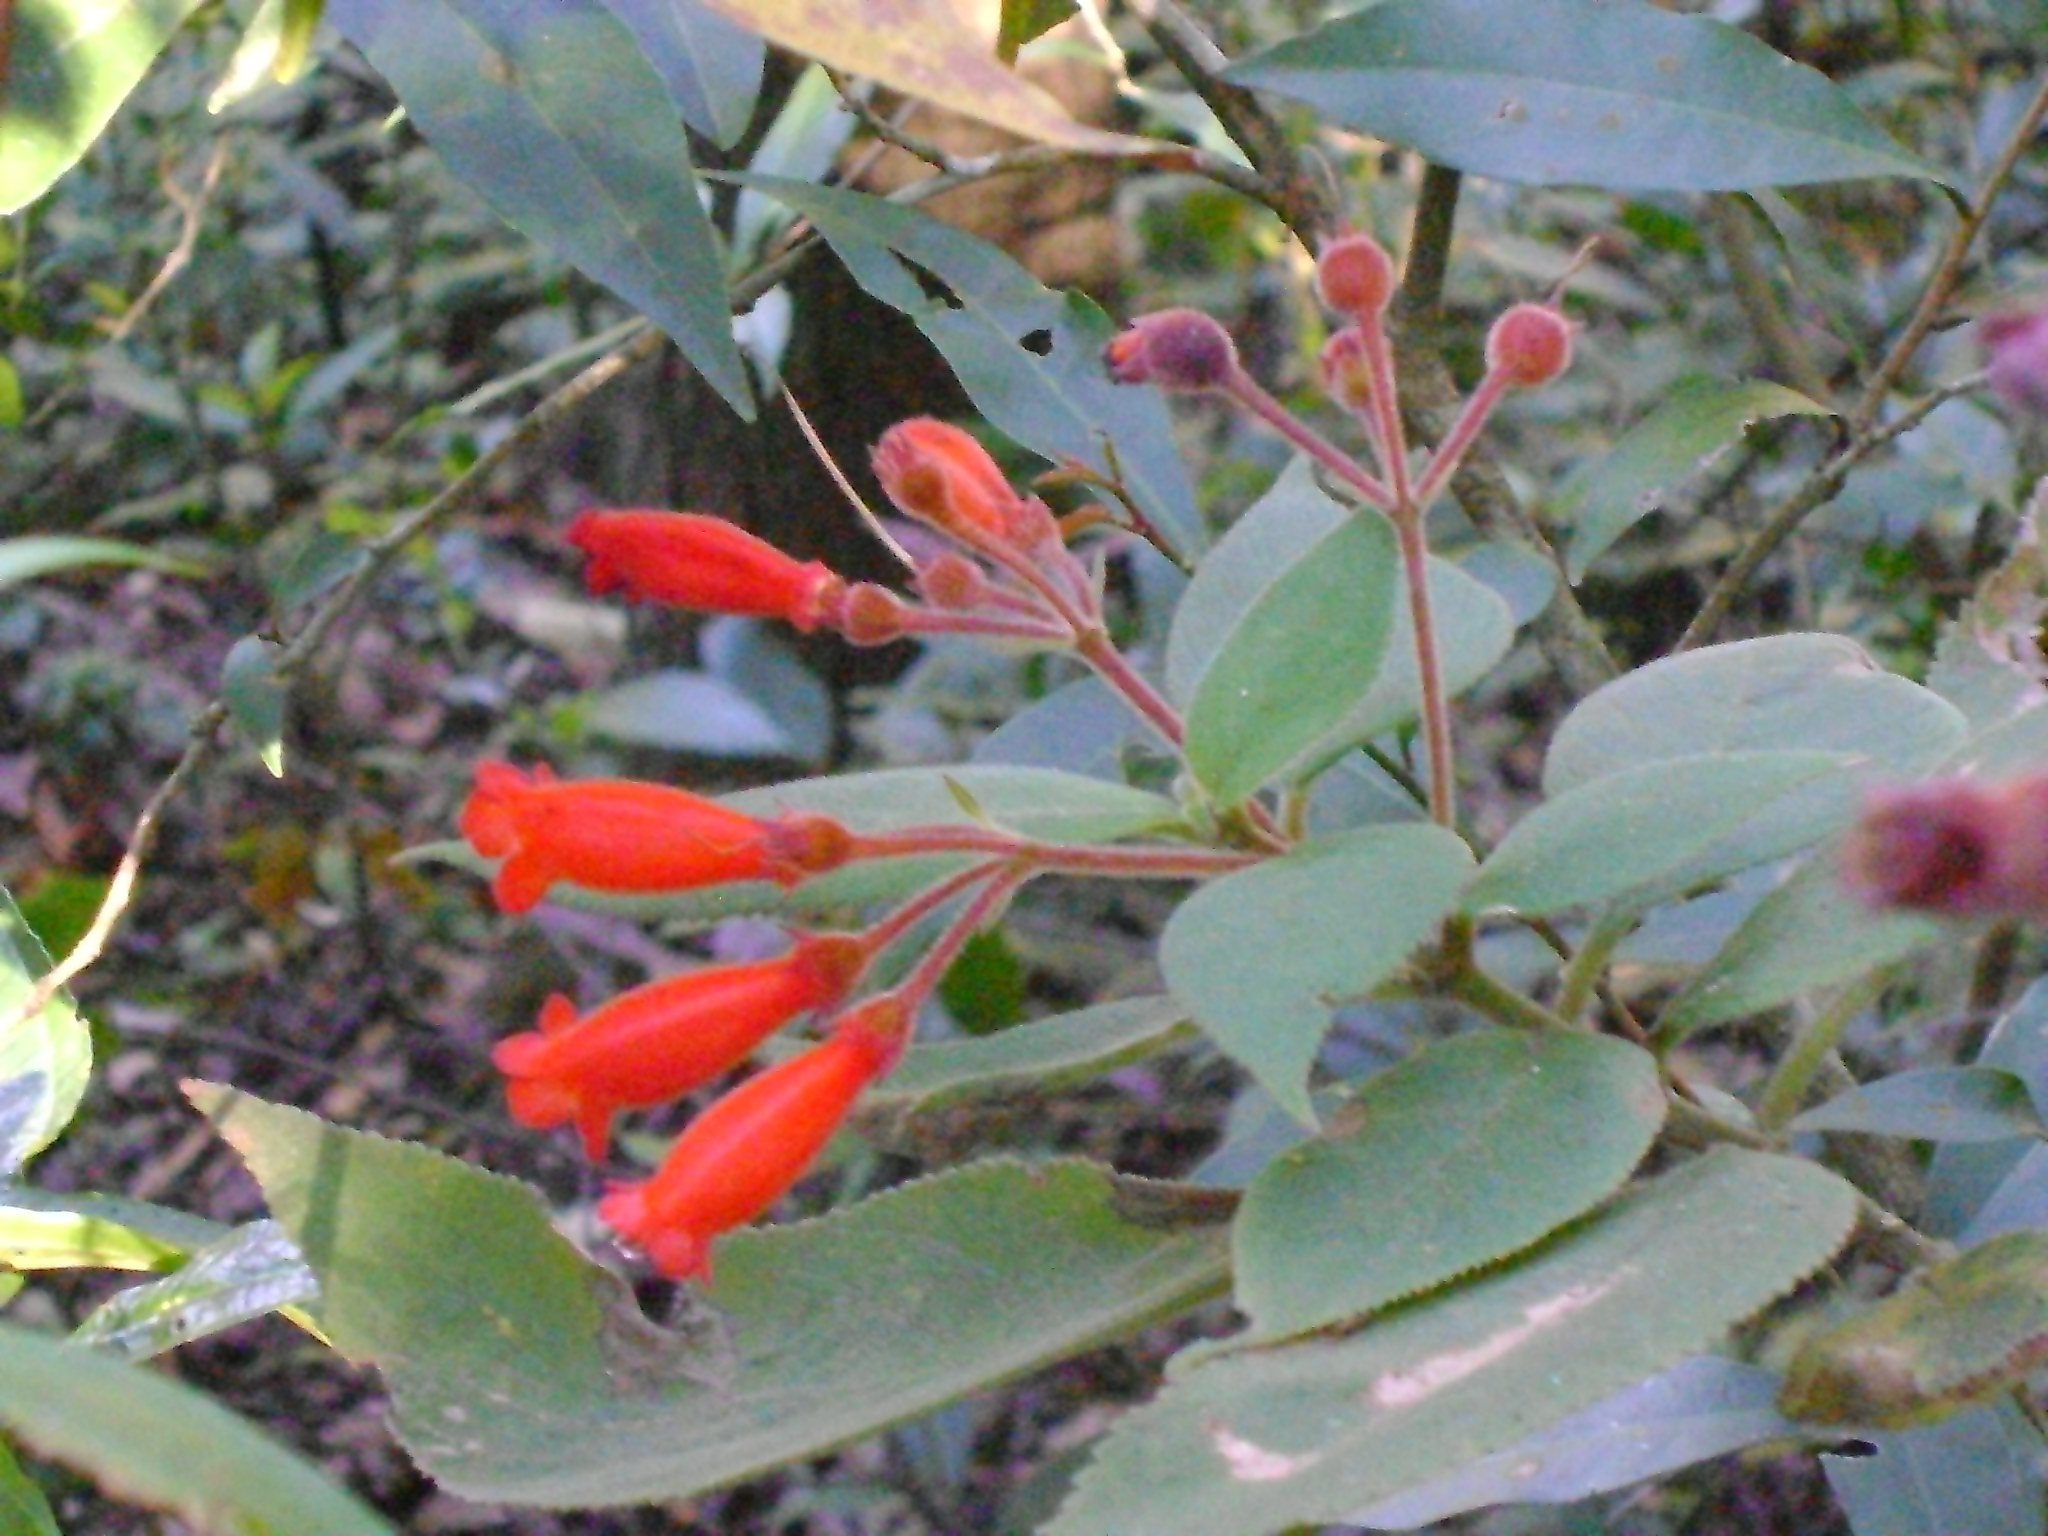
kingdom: Plantae
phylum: Tracheophyta
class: Magnoliopsida
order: Lamiales
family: Gesneriaceae
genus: Moussonia
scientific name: Moussonia deppeana
